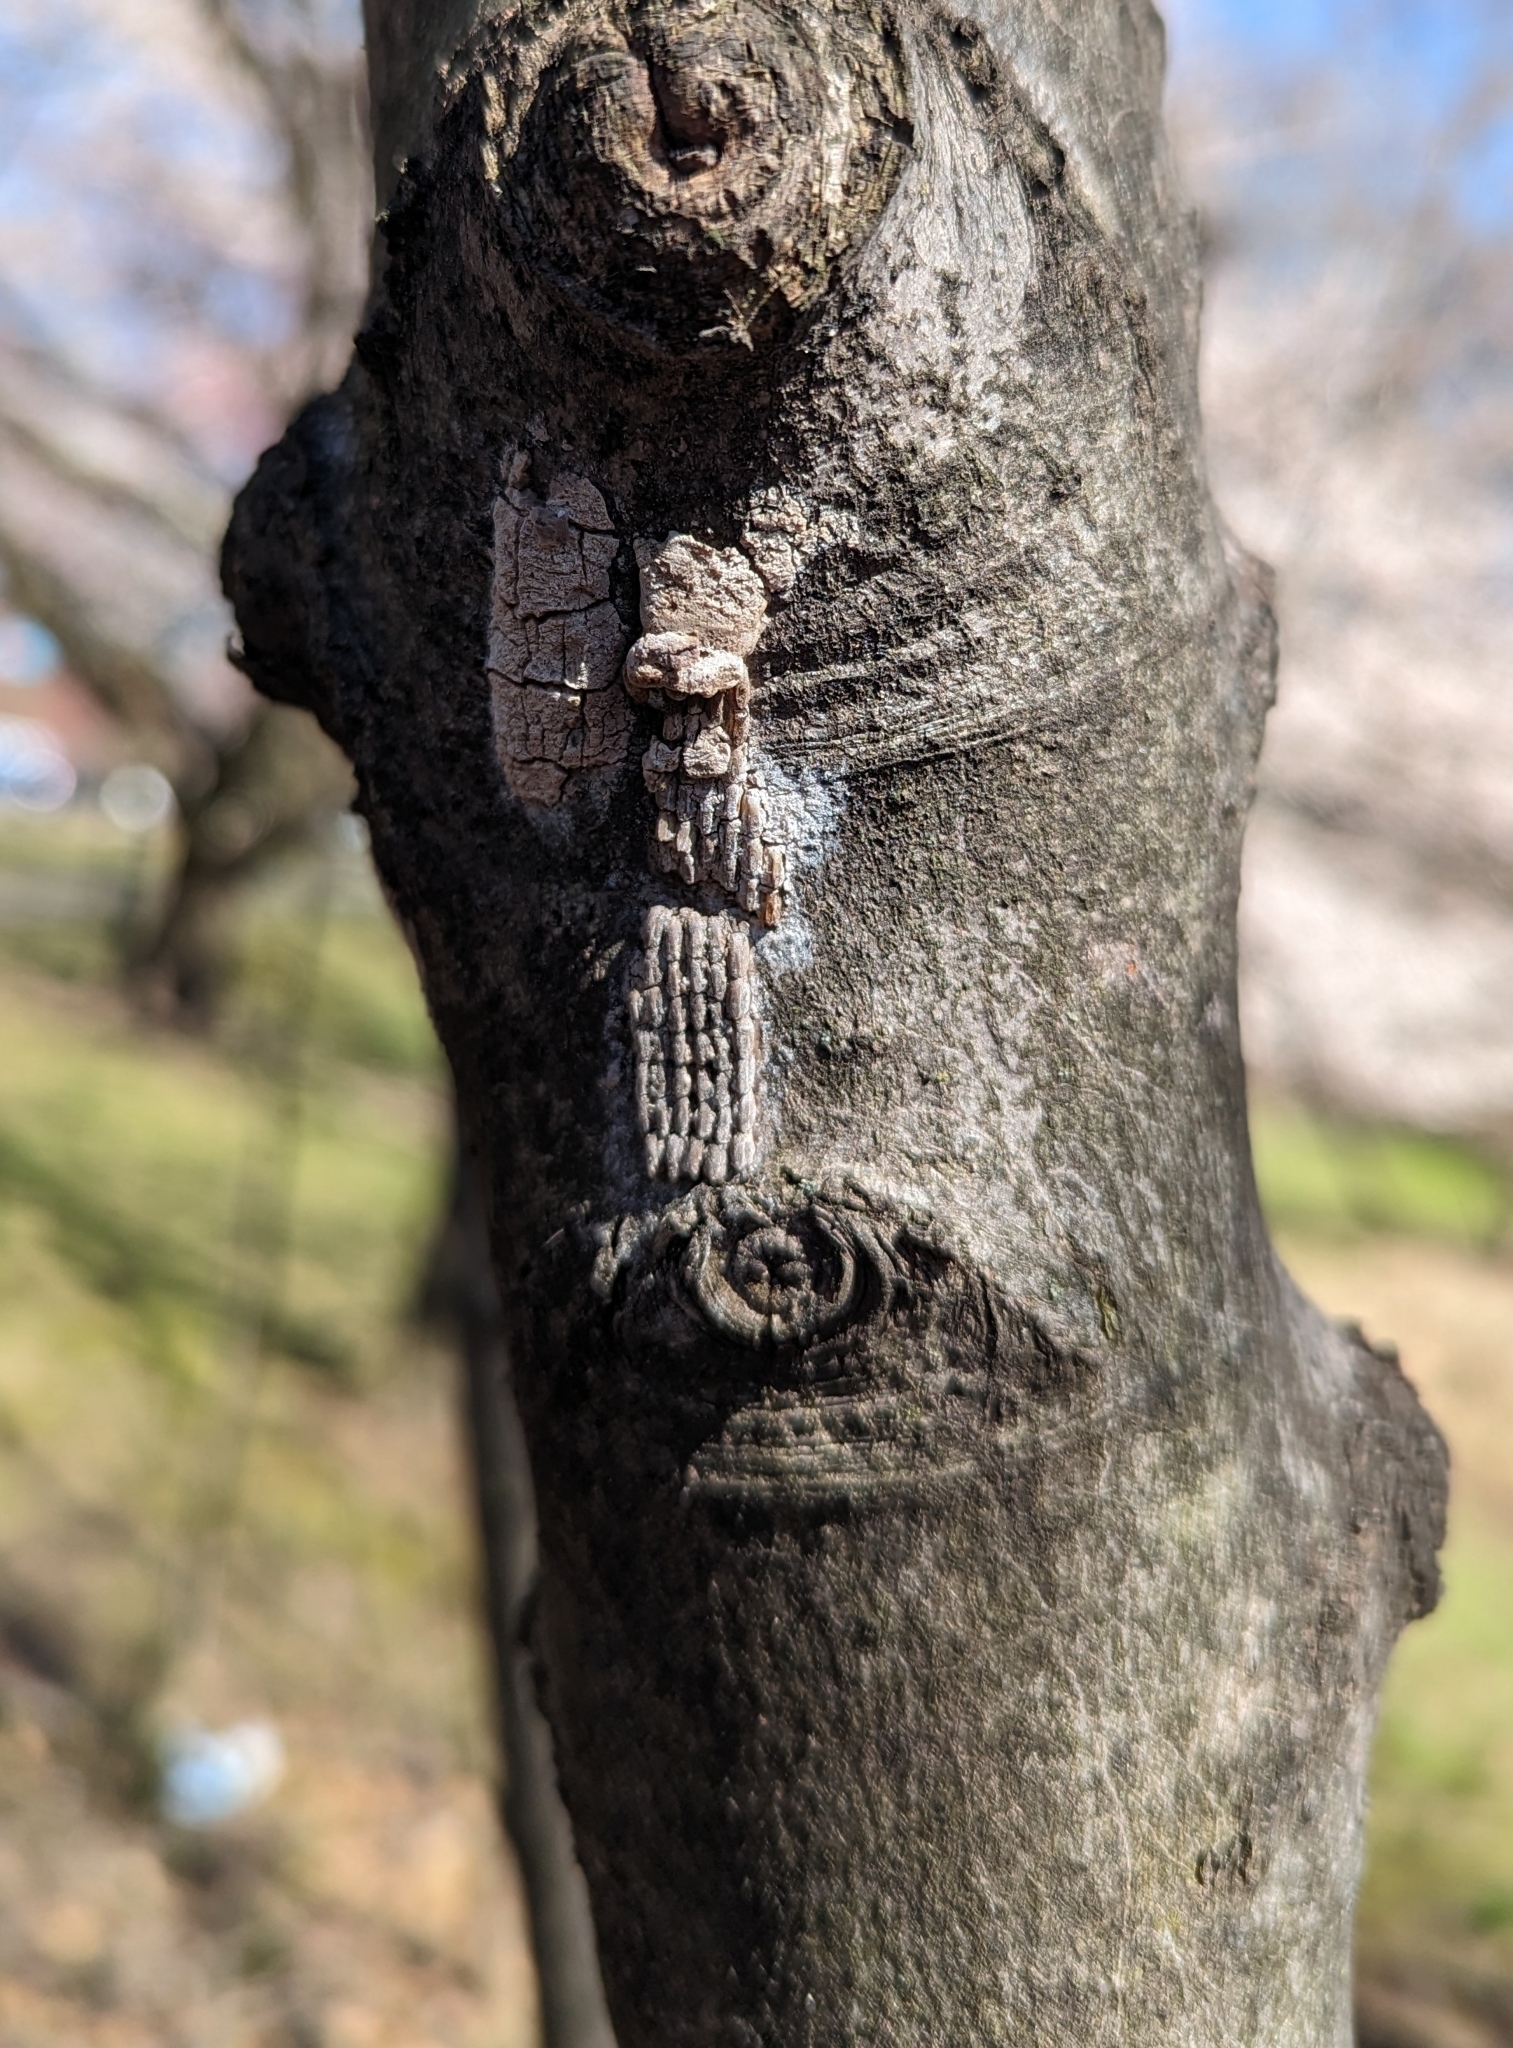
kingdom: Animalia
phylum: Arthropoda
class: Insecta
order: Hemiptera
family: Fulgoridae
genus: Lycorma
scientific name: Lycorma delicatula
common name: Spotted lanternfly
